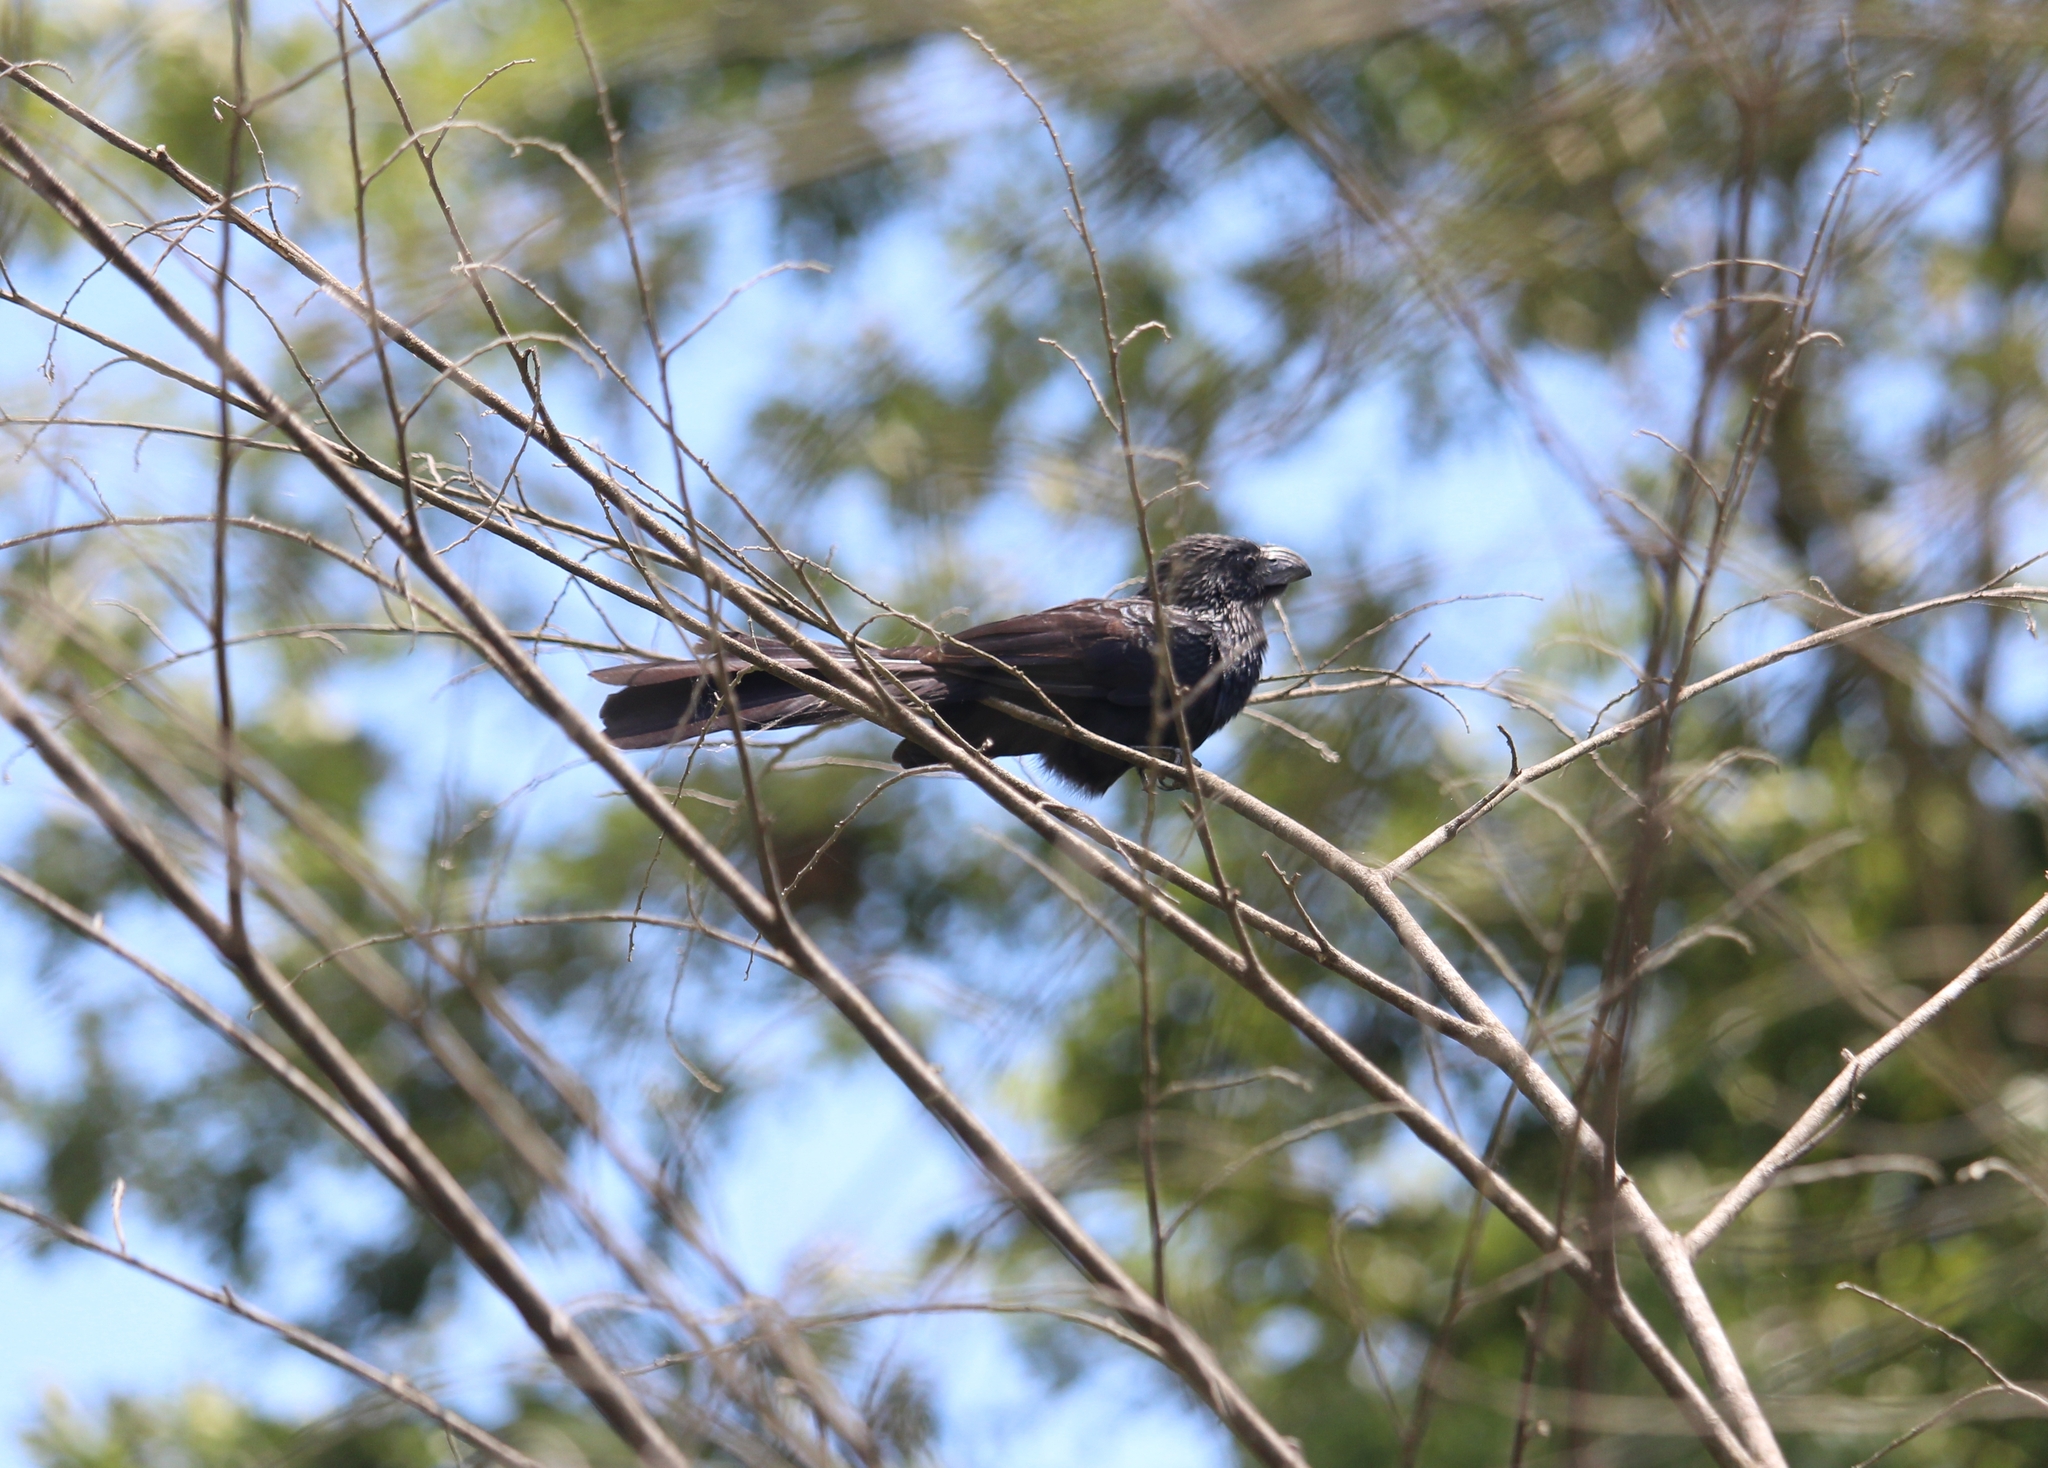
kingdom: Animalia
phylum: Chordata
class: Aves
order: Cuculiformes
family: Cuculidae
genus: Crotophaga
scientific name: Crotophaga sulcirostris
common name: Groove-billed ani
